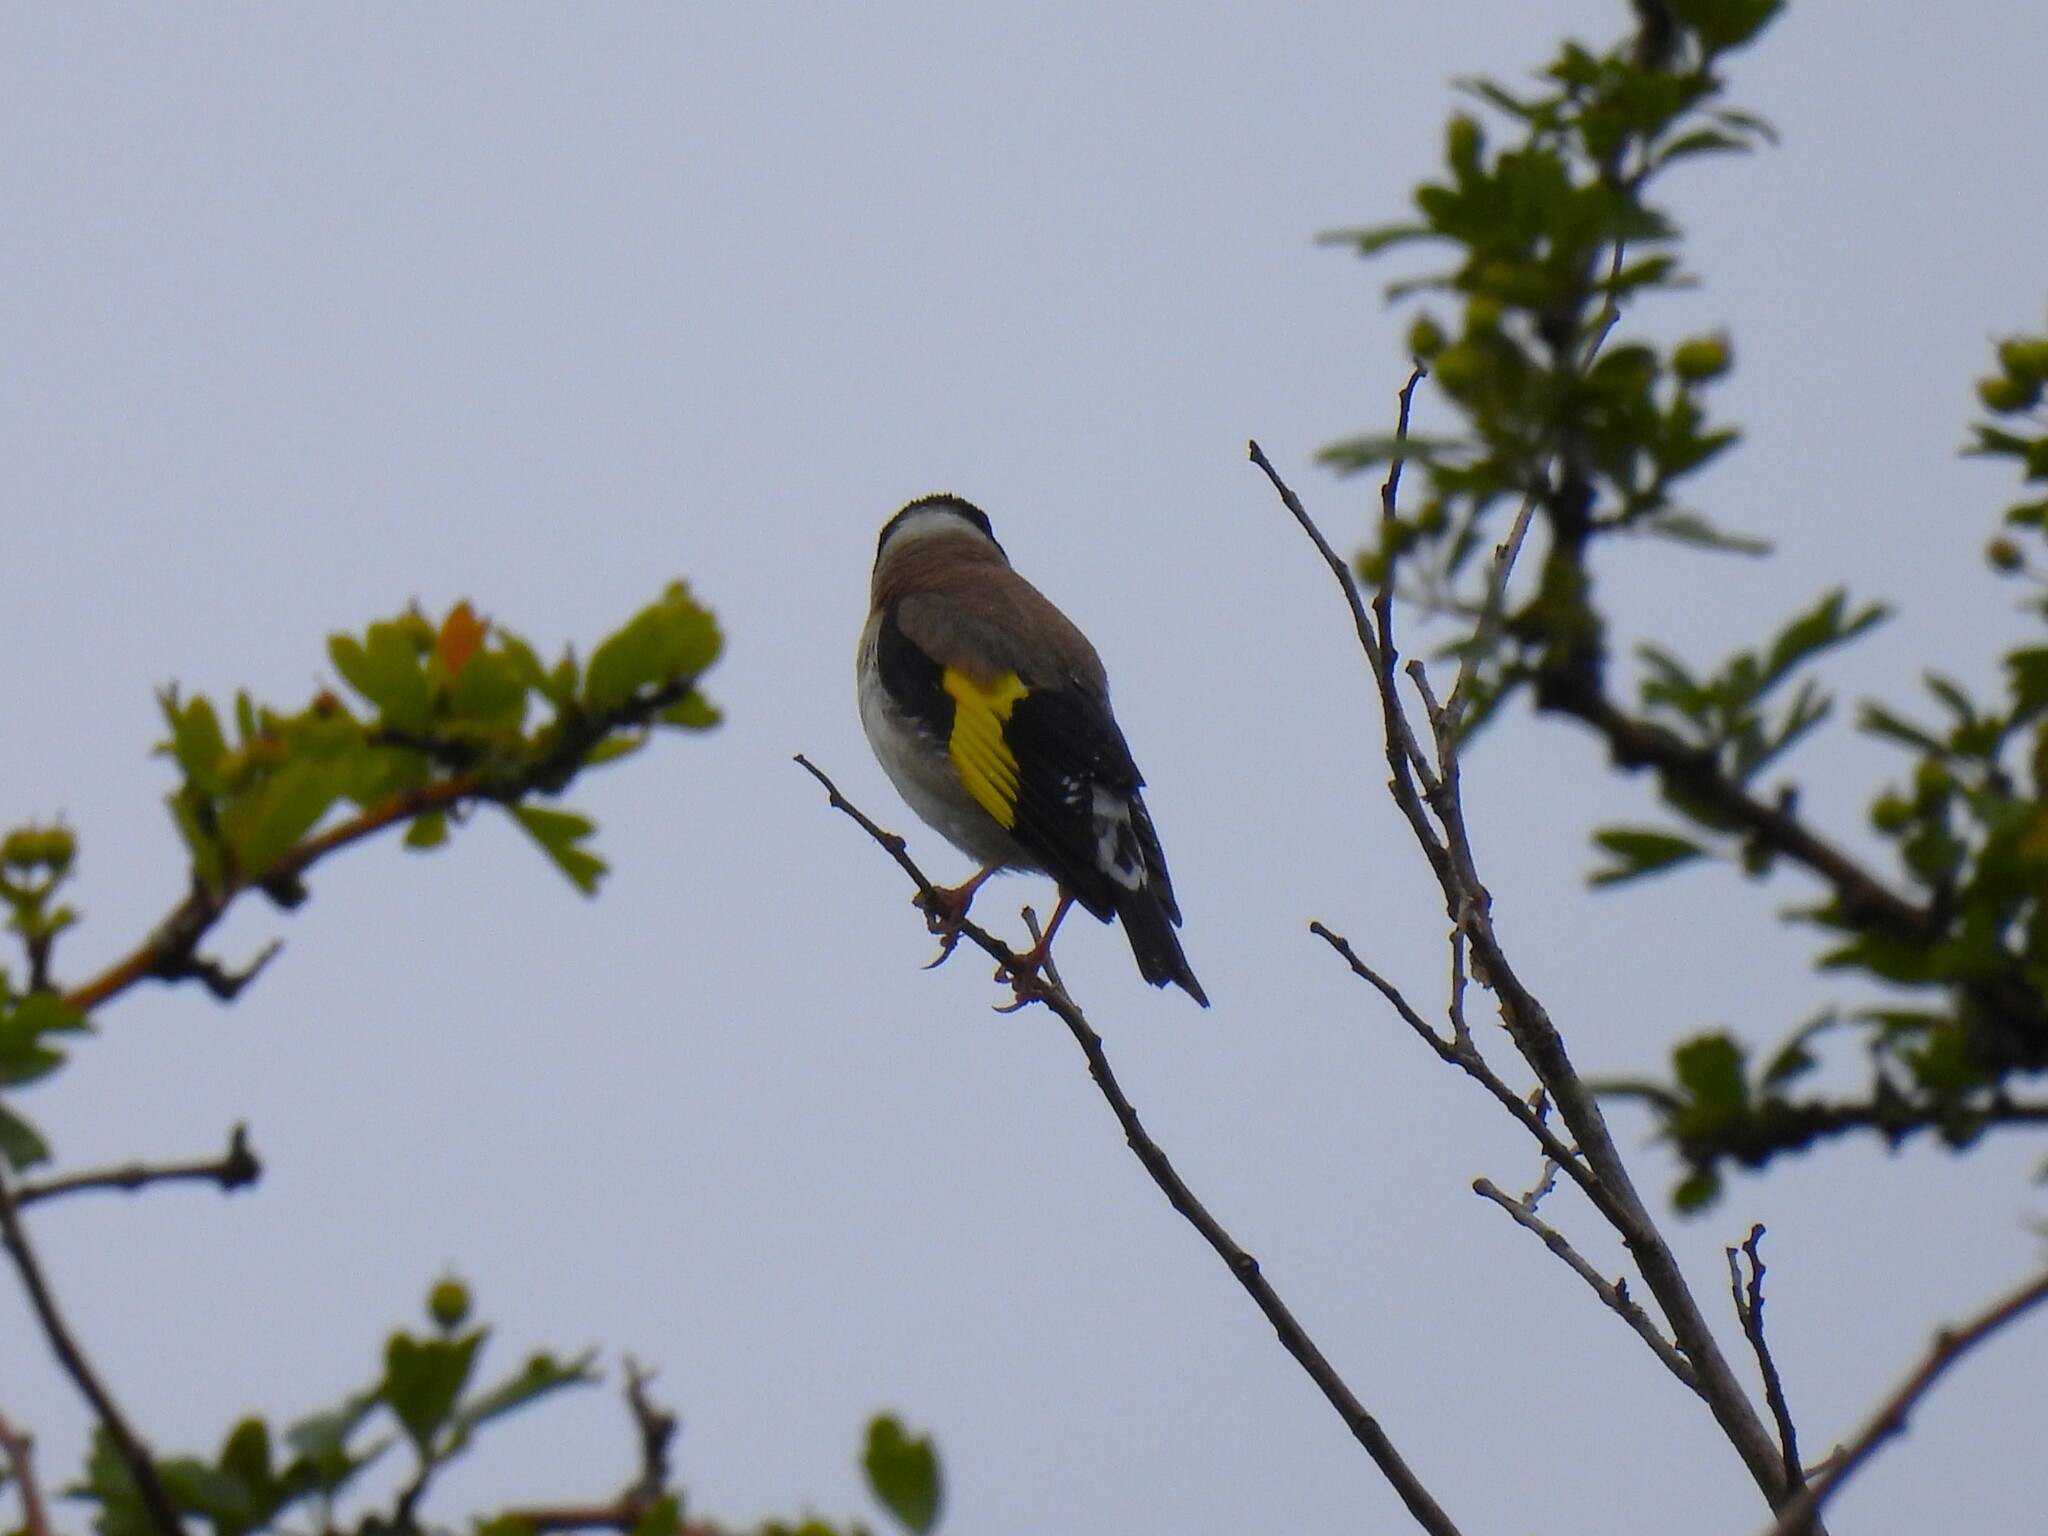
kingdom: Animalia
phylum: Chordata
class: Aves
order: Passeriformes
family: Fringillidae
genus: Carduelis
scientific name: Carduelis carduelis
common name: European goldfinch
